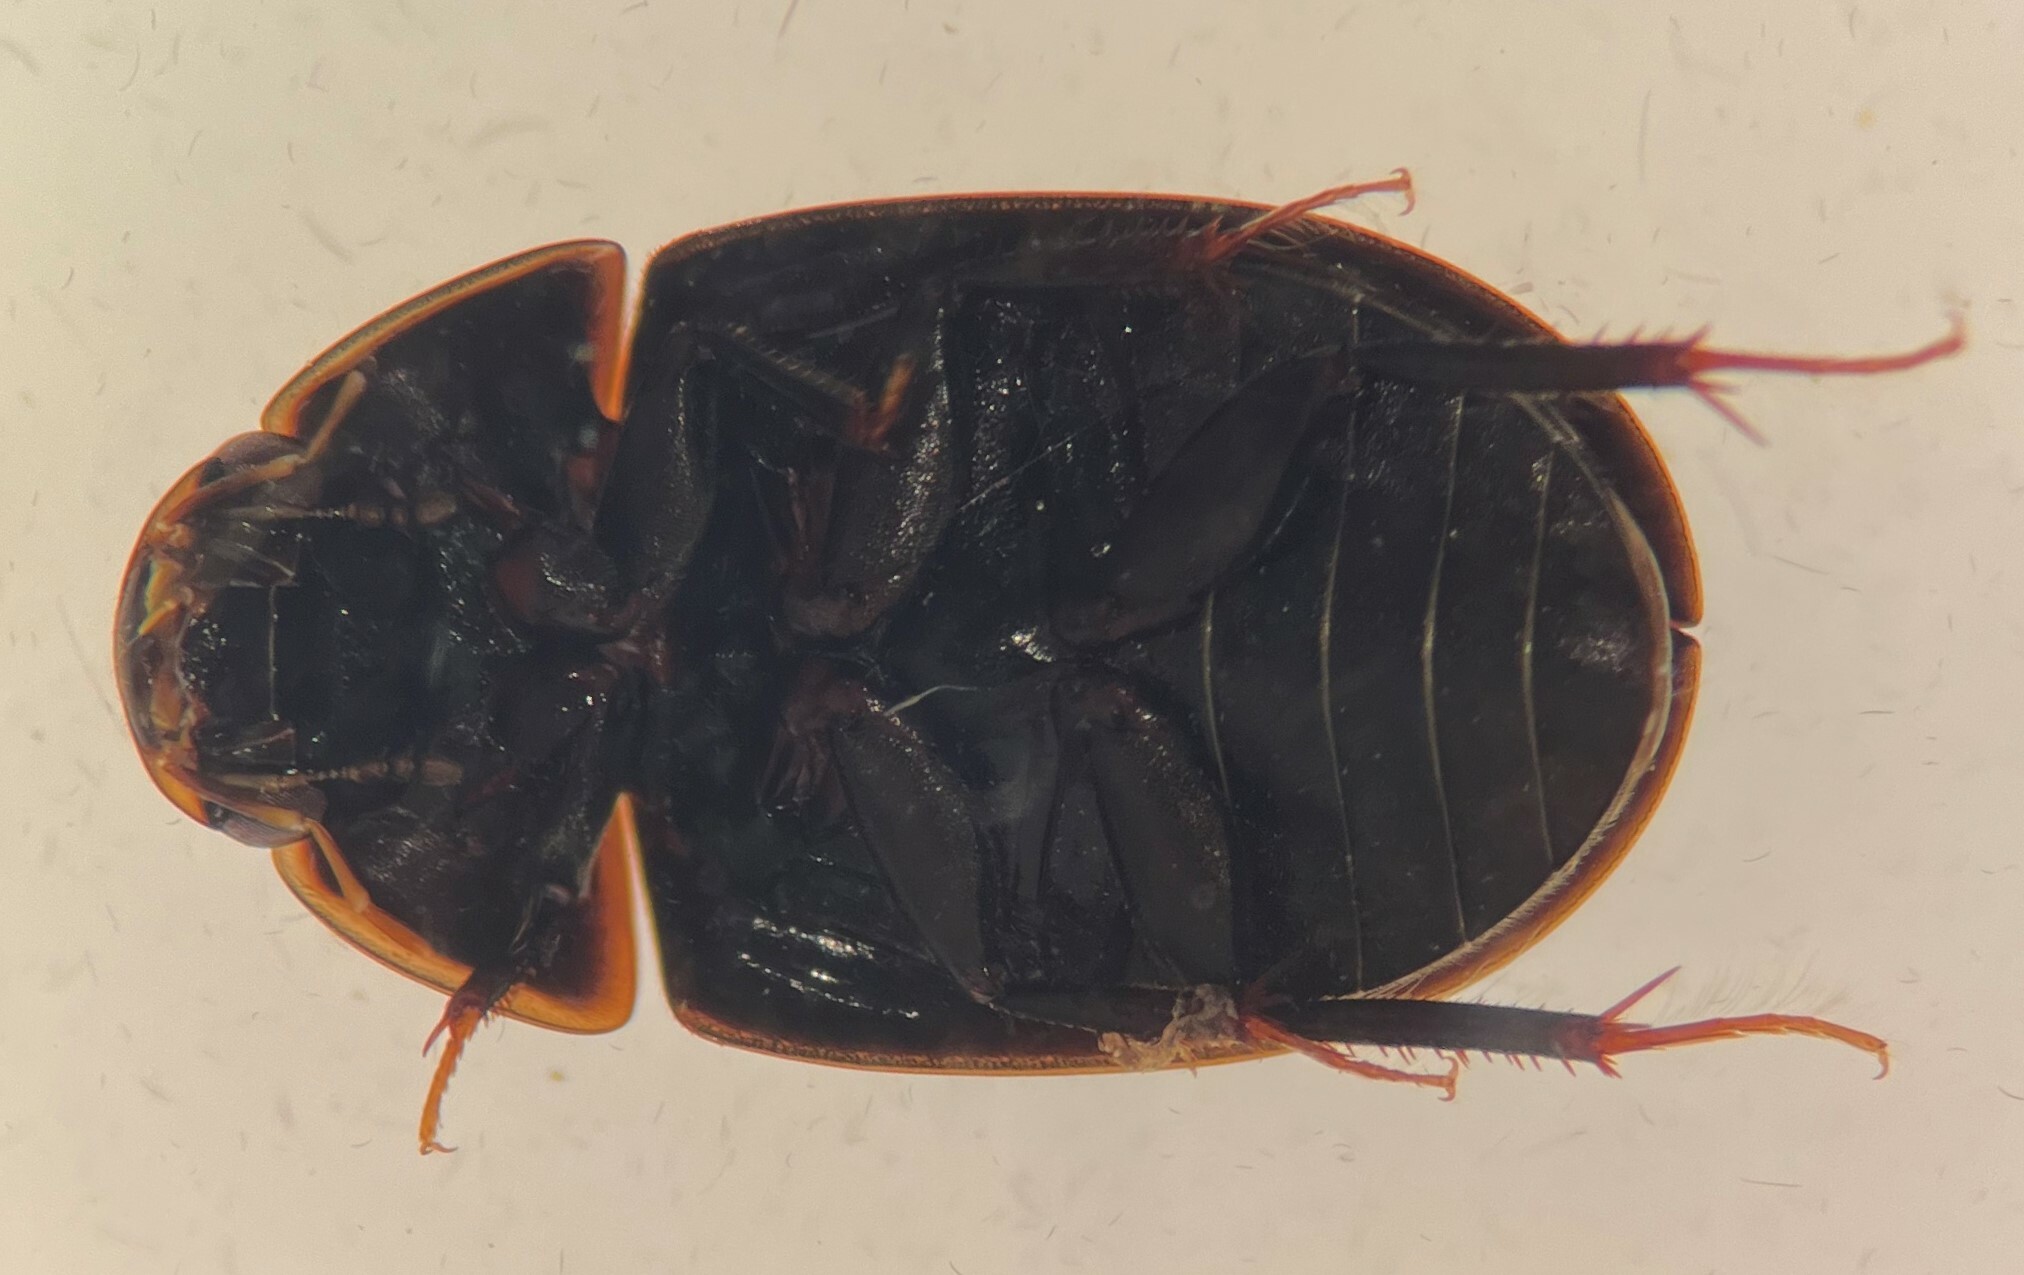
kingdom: Animalia
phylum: Arthropoda
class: Insecta
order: Coleoptera
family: Hydrophilidae
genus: Enochrus
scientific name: Enochrus cinctus
